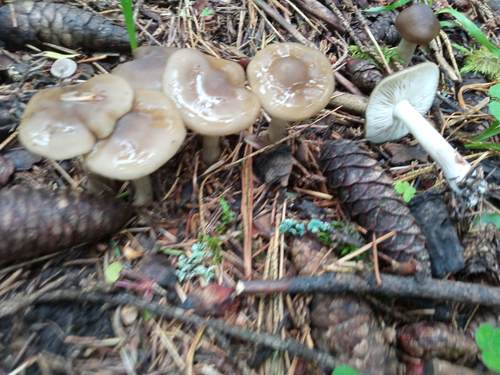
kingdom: Fungi
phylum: Basidiomycota
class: Agaricomycetes
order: Agaricales
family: Entolomataceae
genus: Entoloma
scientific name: Entoloma
